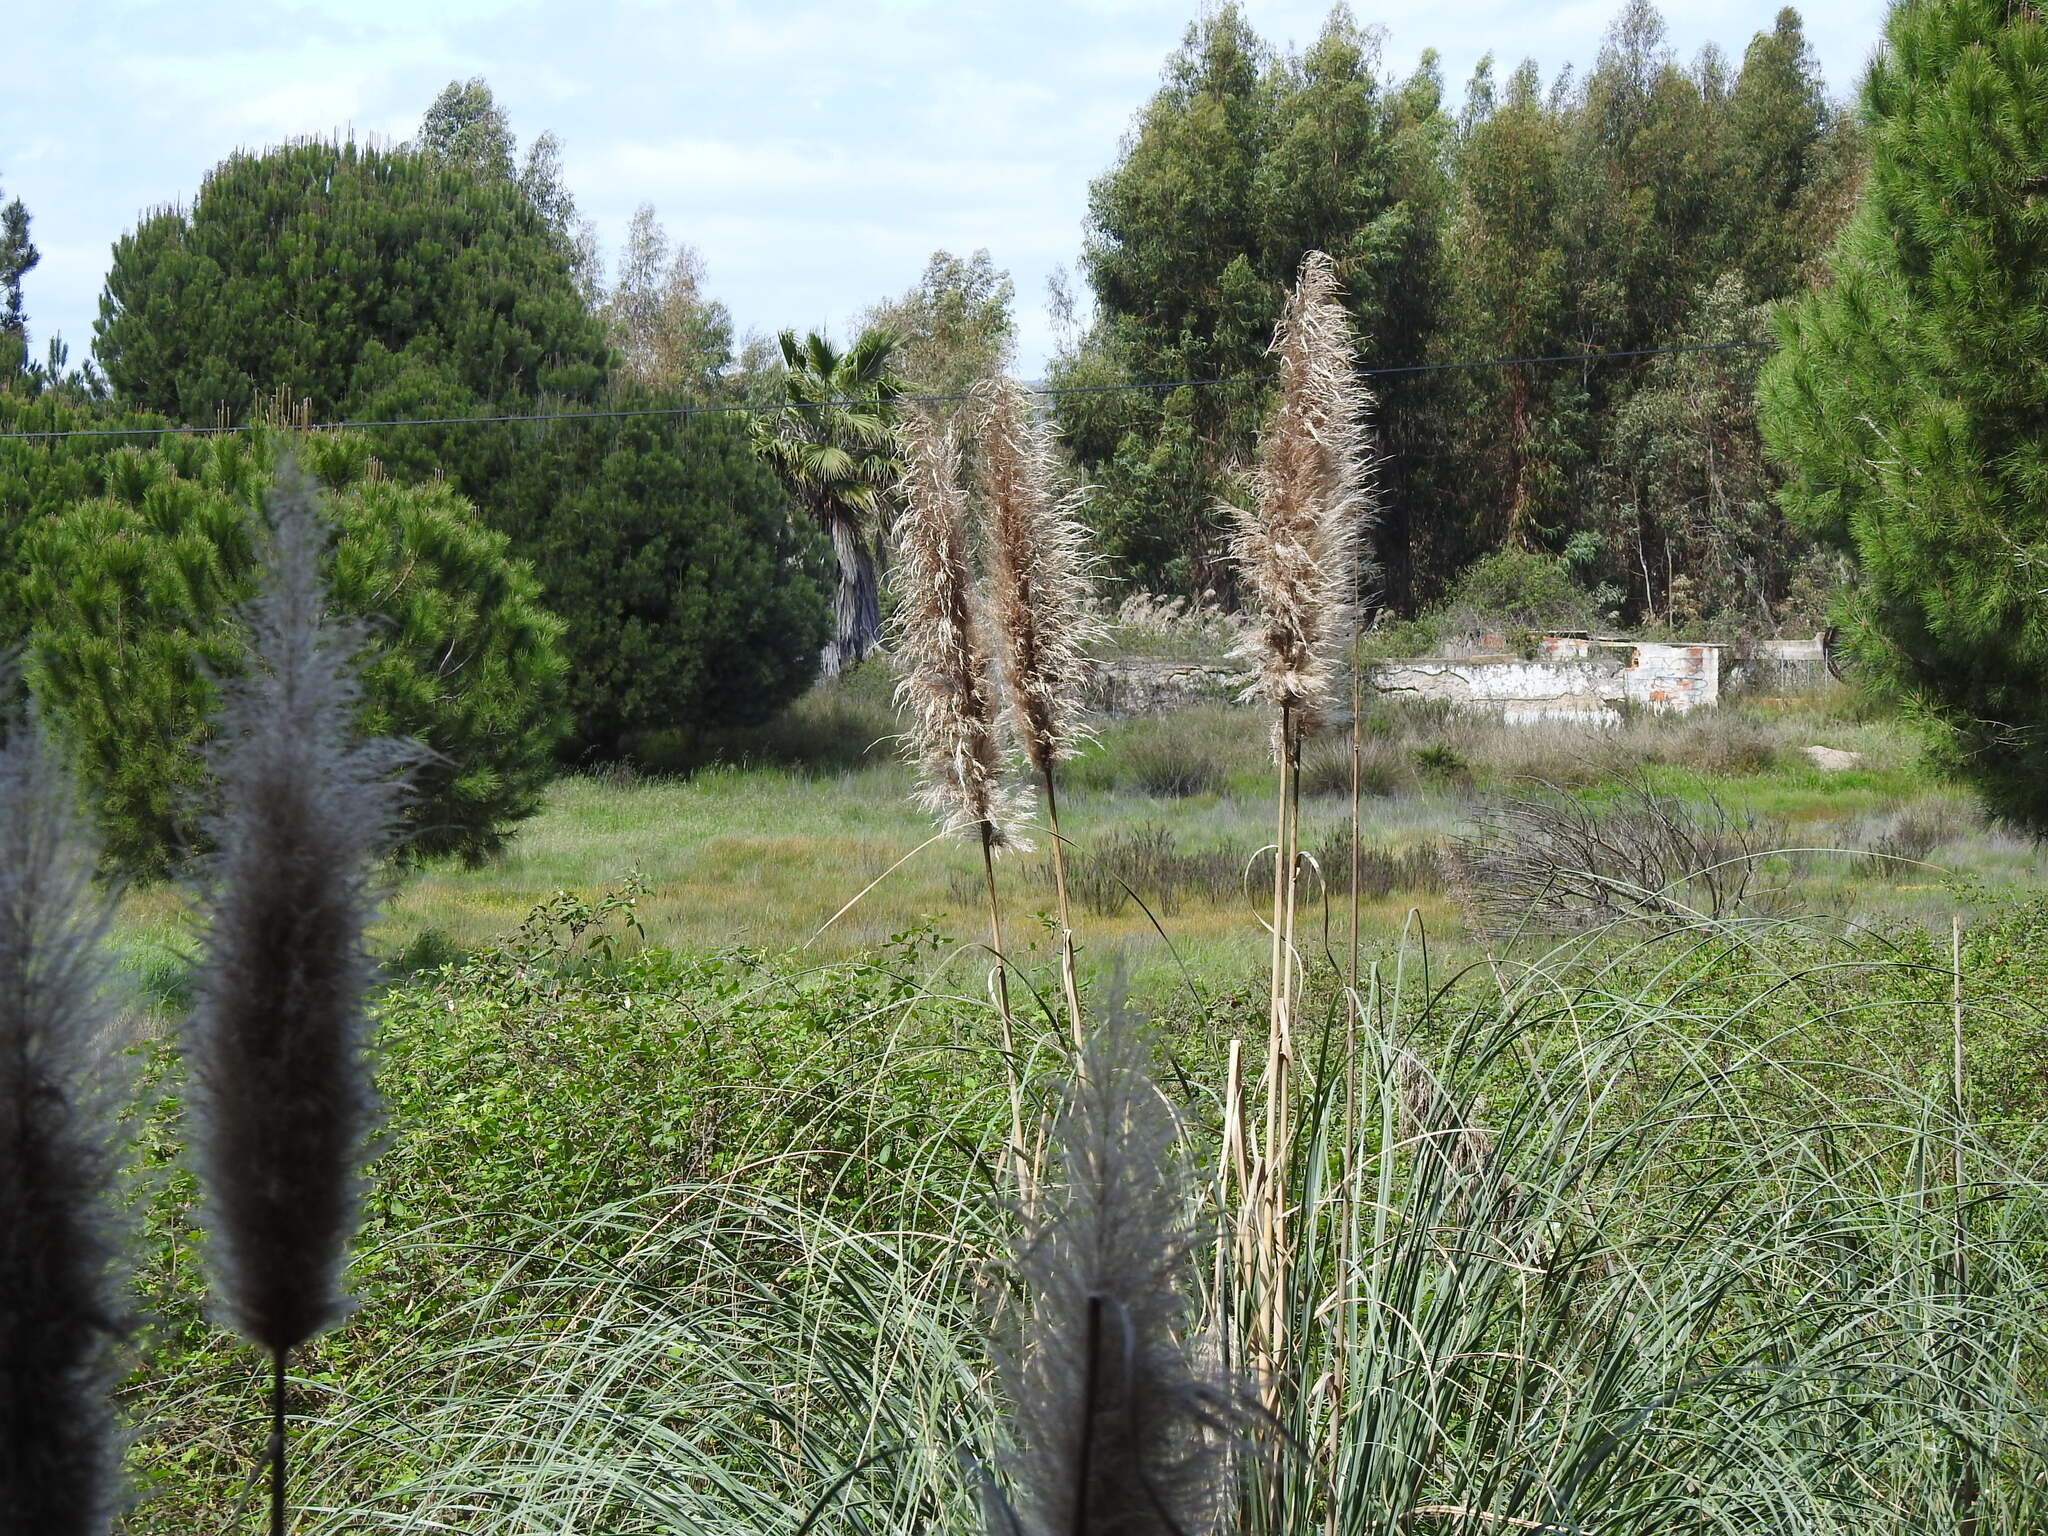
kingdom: Plantae
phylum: Tracheophyta
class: Liliopsida
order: Poales
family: Poaceae
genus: Cortaderia
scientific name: Cortaderia selloana
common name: Uruguayan pampas grass
